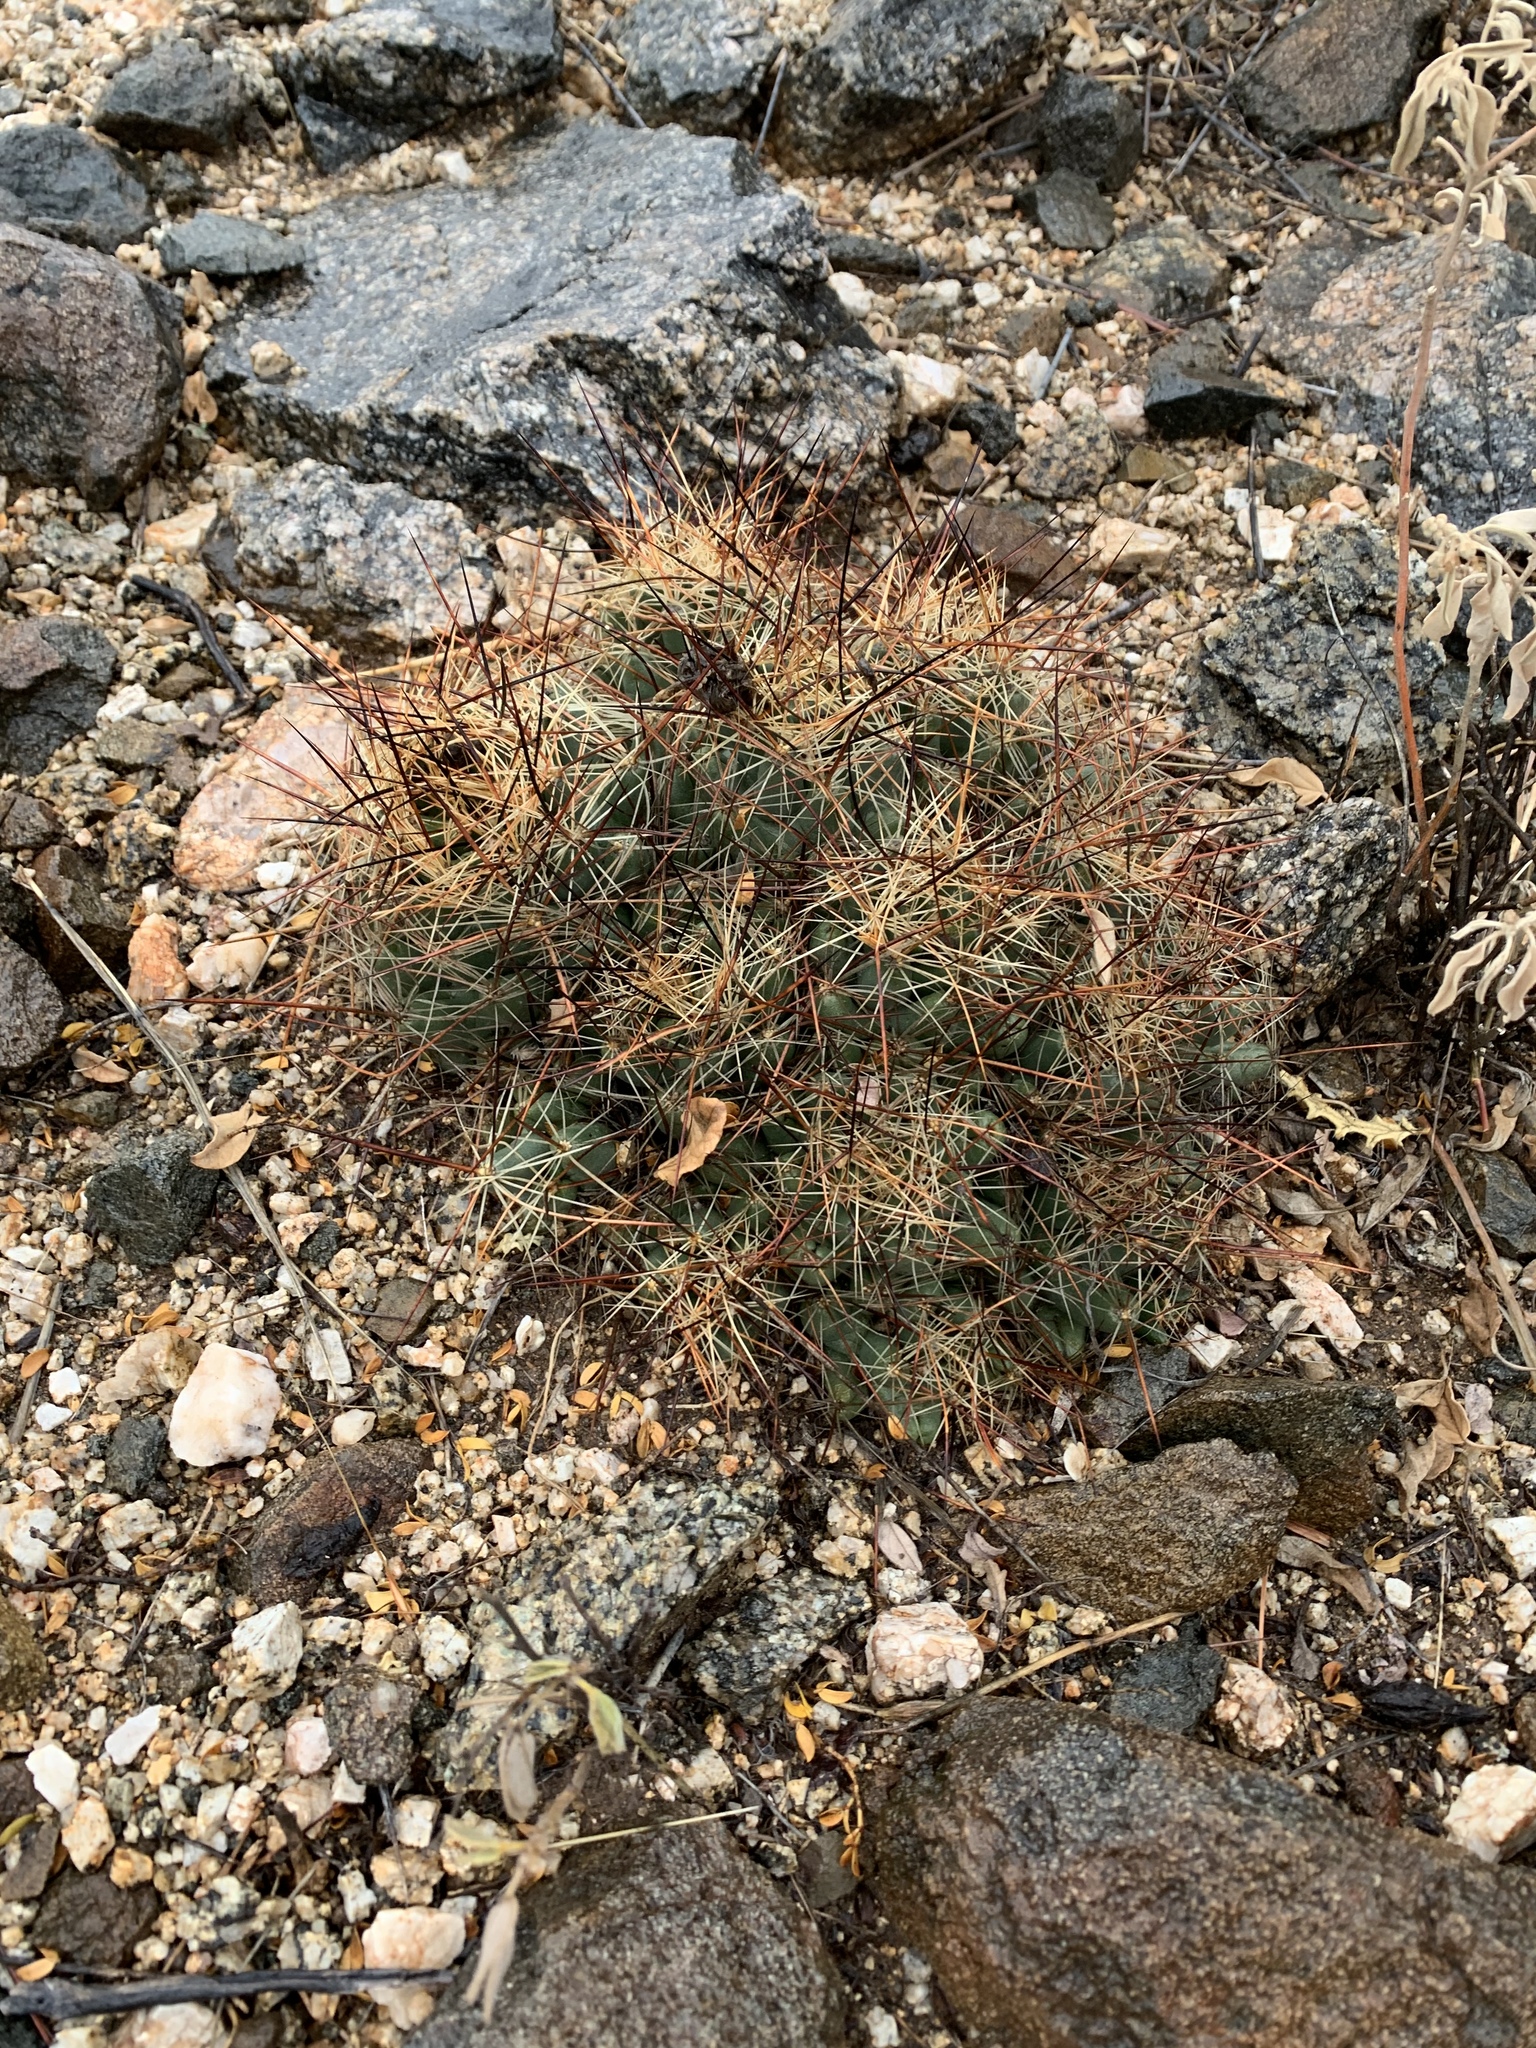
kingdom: Plantae
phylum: Tracheophyta
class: Magnoliopsida
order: Caryophyllales
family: Cactaceae
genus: Coryphantha
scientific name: Coryphantha macromeris
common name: Nipple beehive cactus
